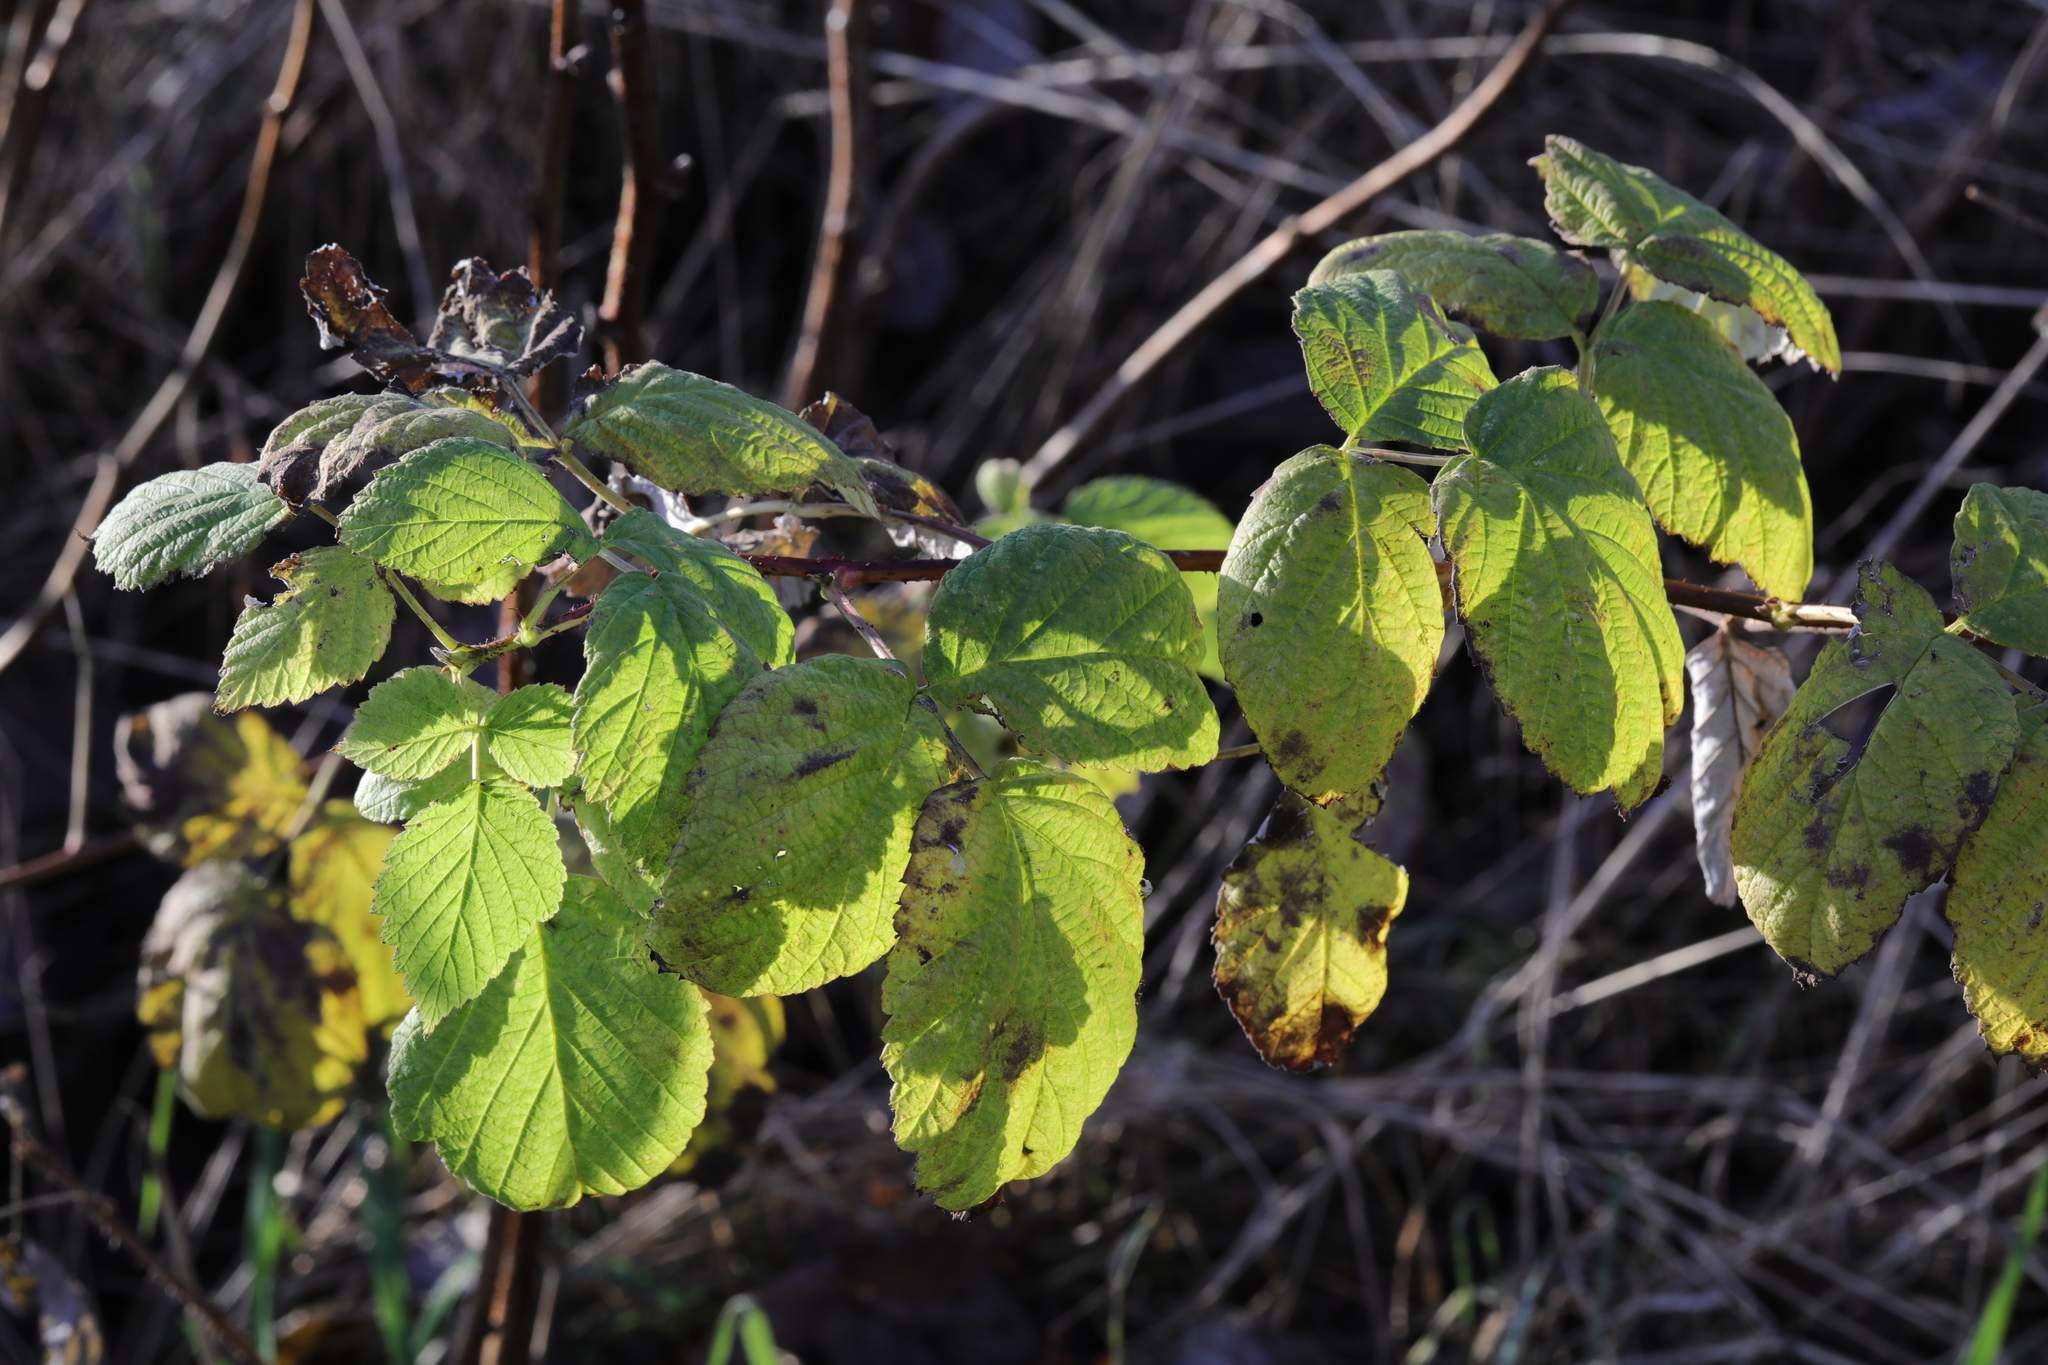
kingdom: Plantae
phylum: Tracheophyta
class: Magnoliopsida
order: Rosales
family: Rosaceae
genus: Rubus
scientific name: Rubus idaeus
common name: Raspberry
